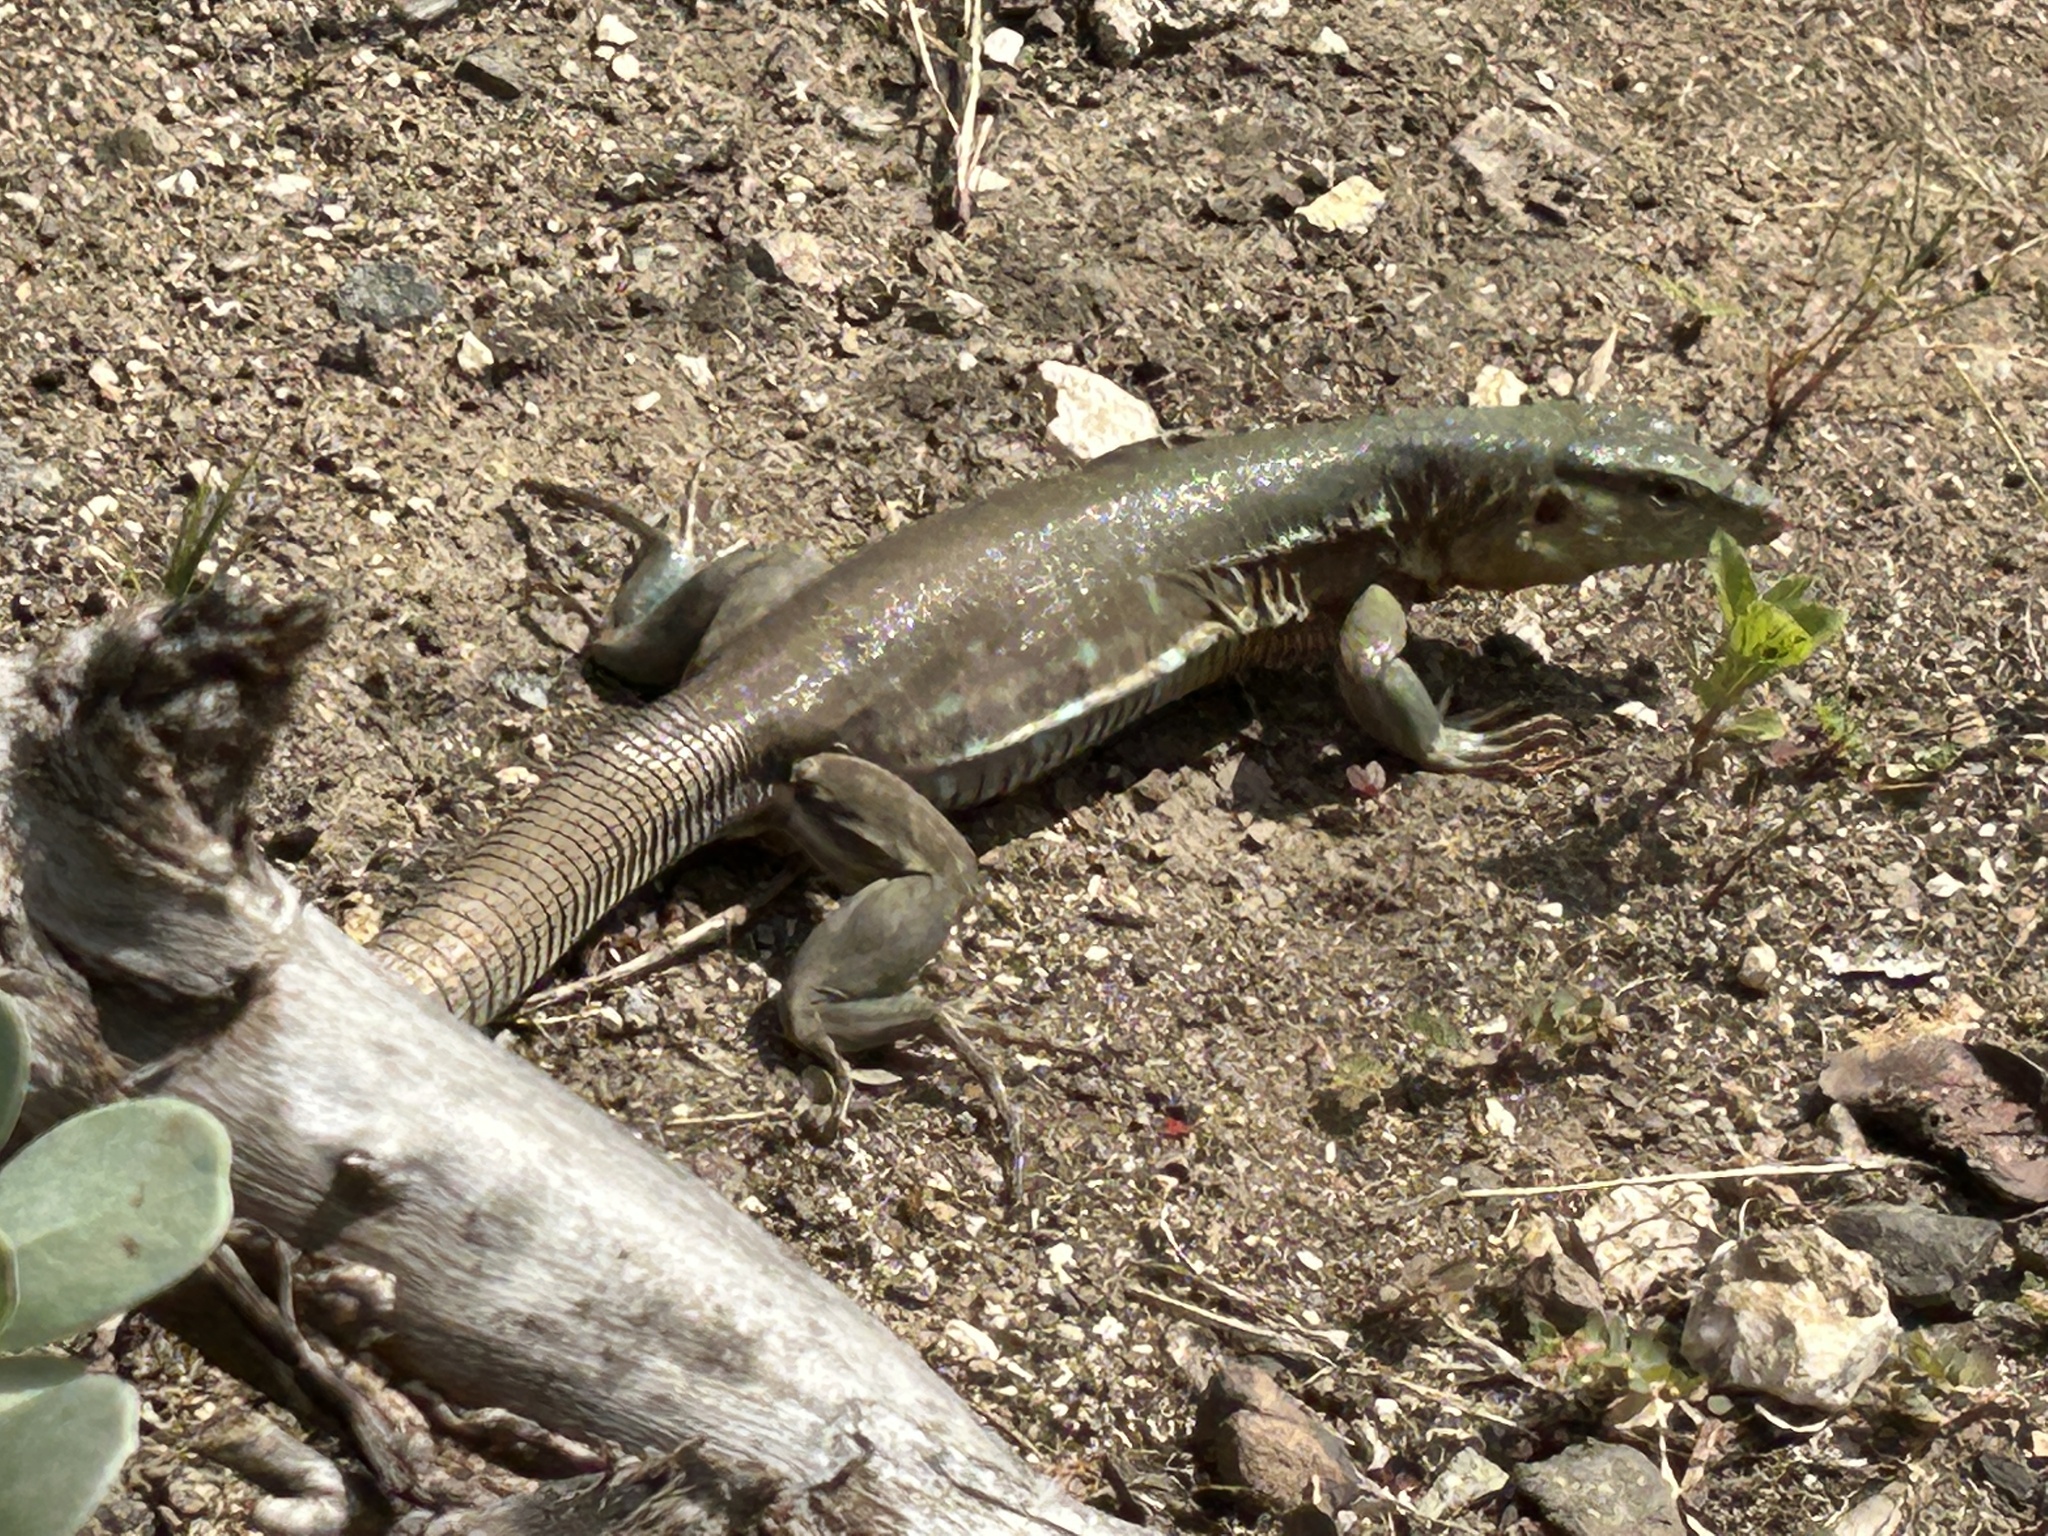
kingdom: Animalia
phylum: Chordata
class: Squamata
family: Teiidae
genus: Cnemidophorus
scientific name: Cnemidophorus murinus
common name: Laurent's whiptail
